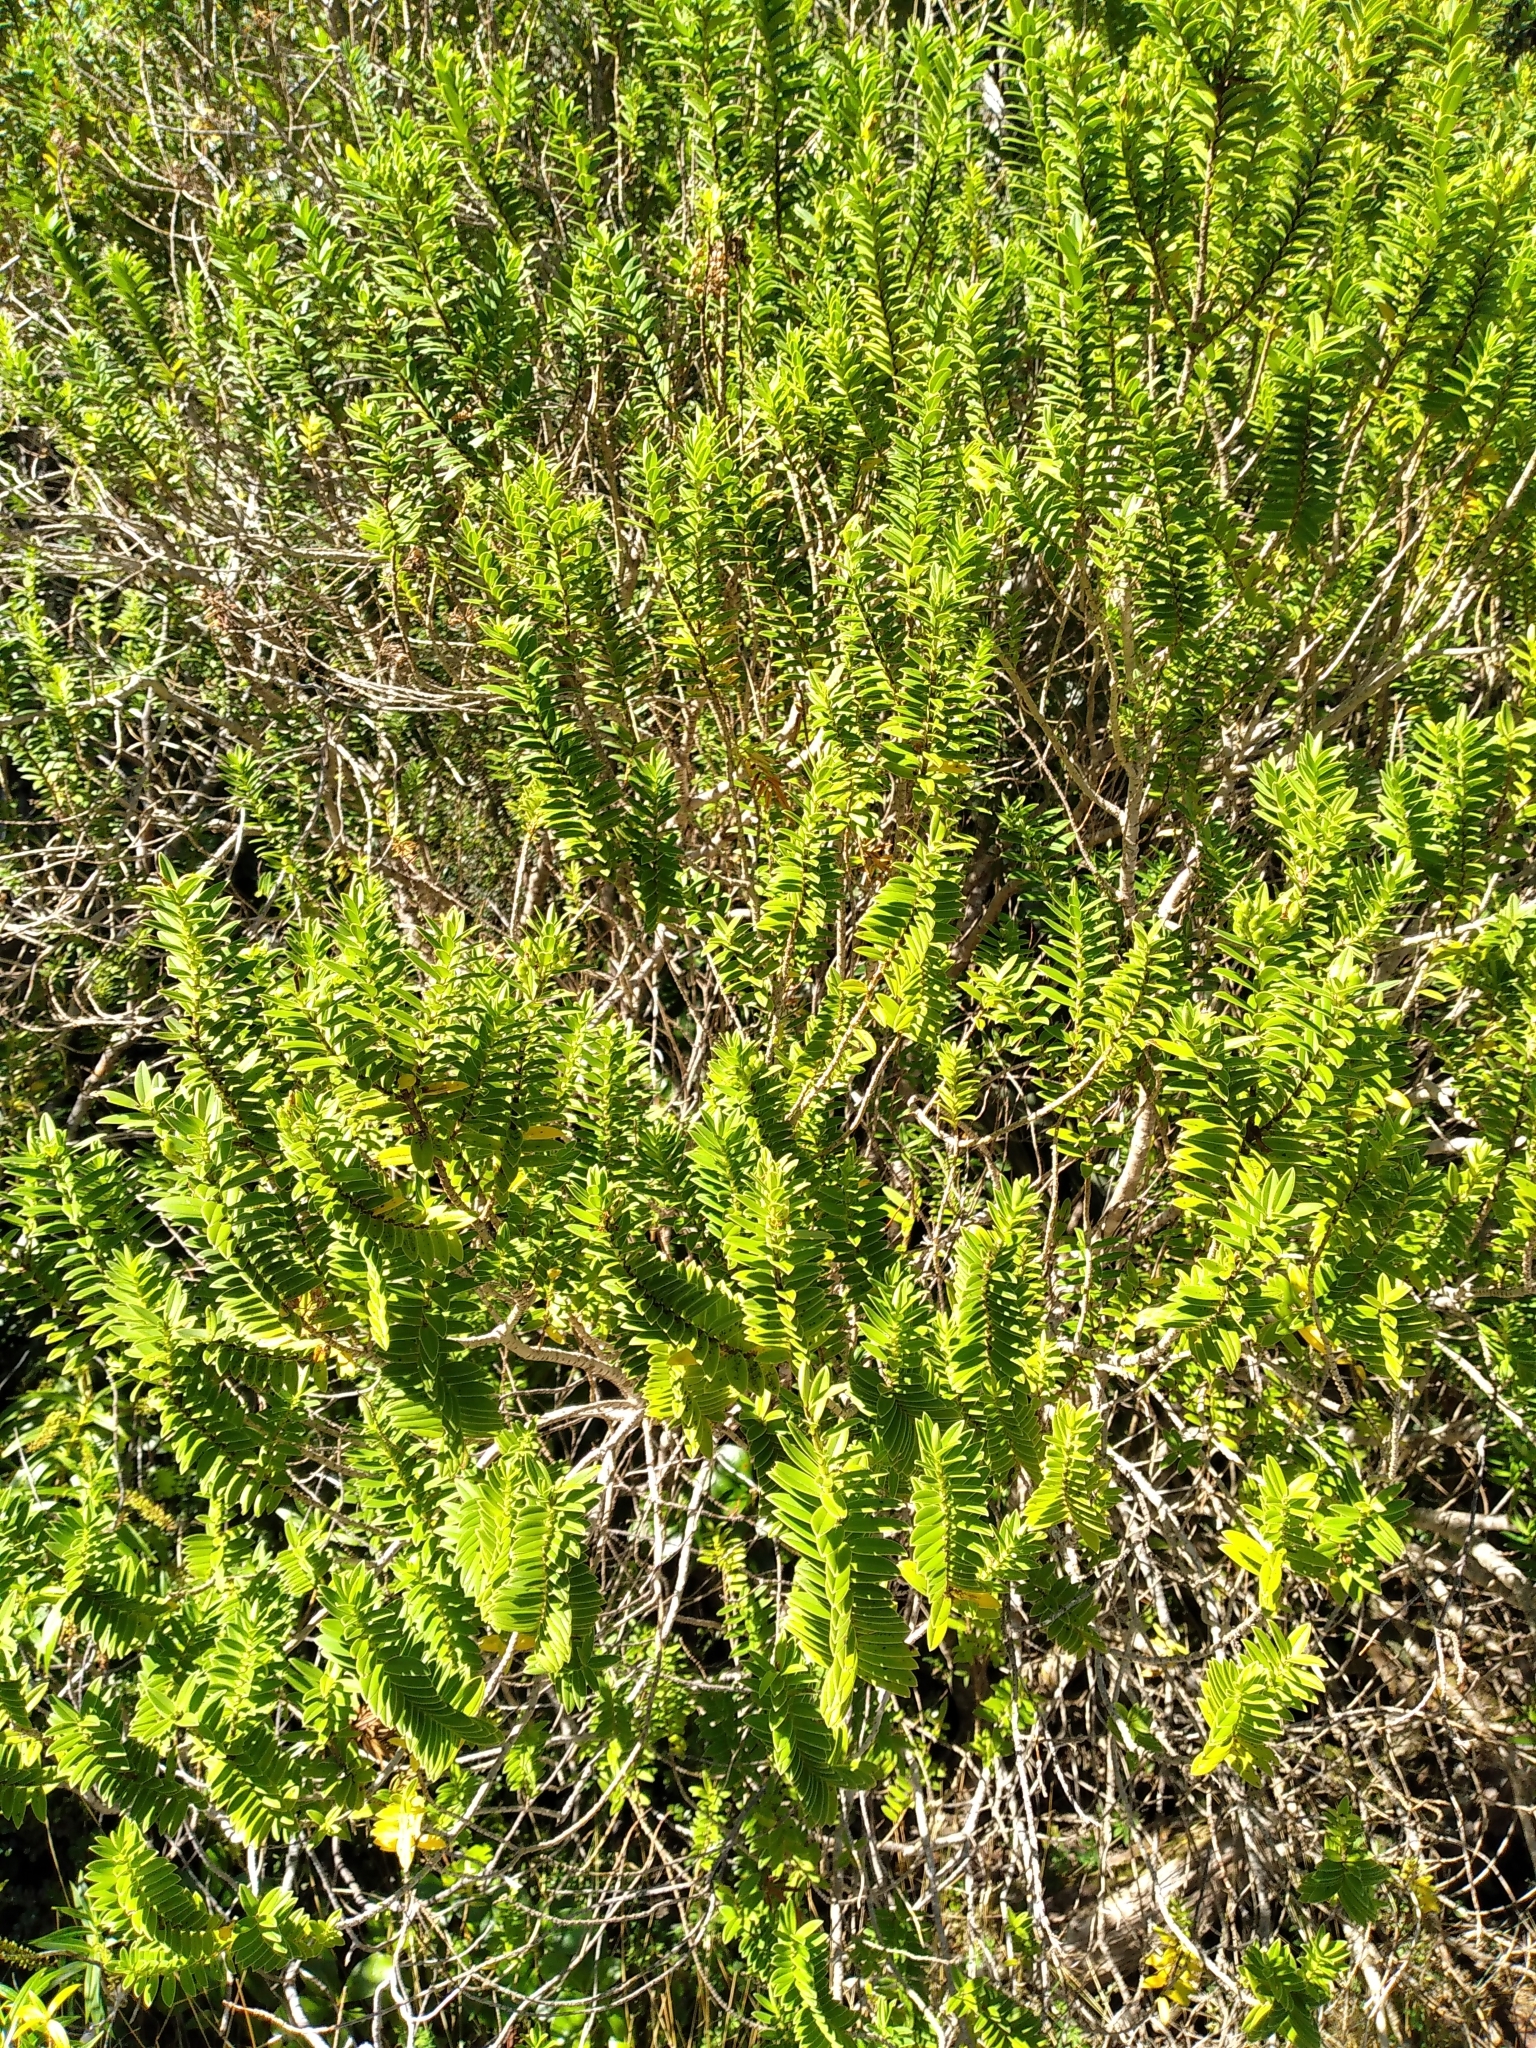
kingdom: Plantae
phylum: Tracheophyta
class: Magnoliopsida
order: Lamiales
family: Plantaginaceae
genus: Veronica
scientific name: Veronica elliptica
